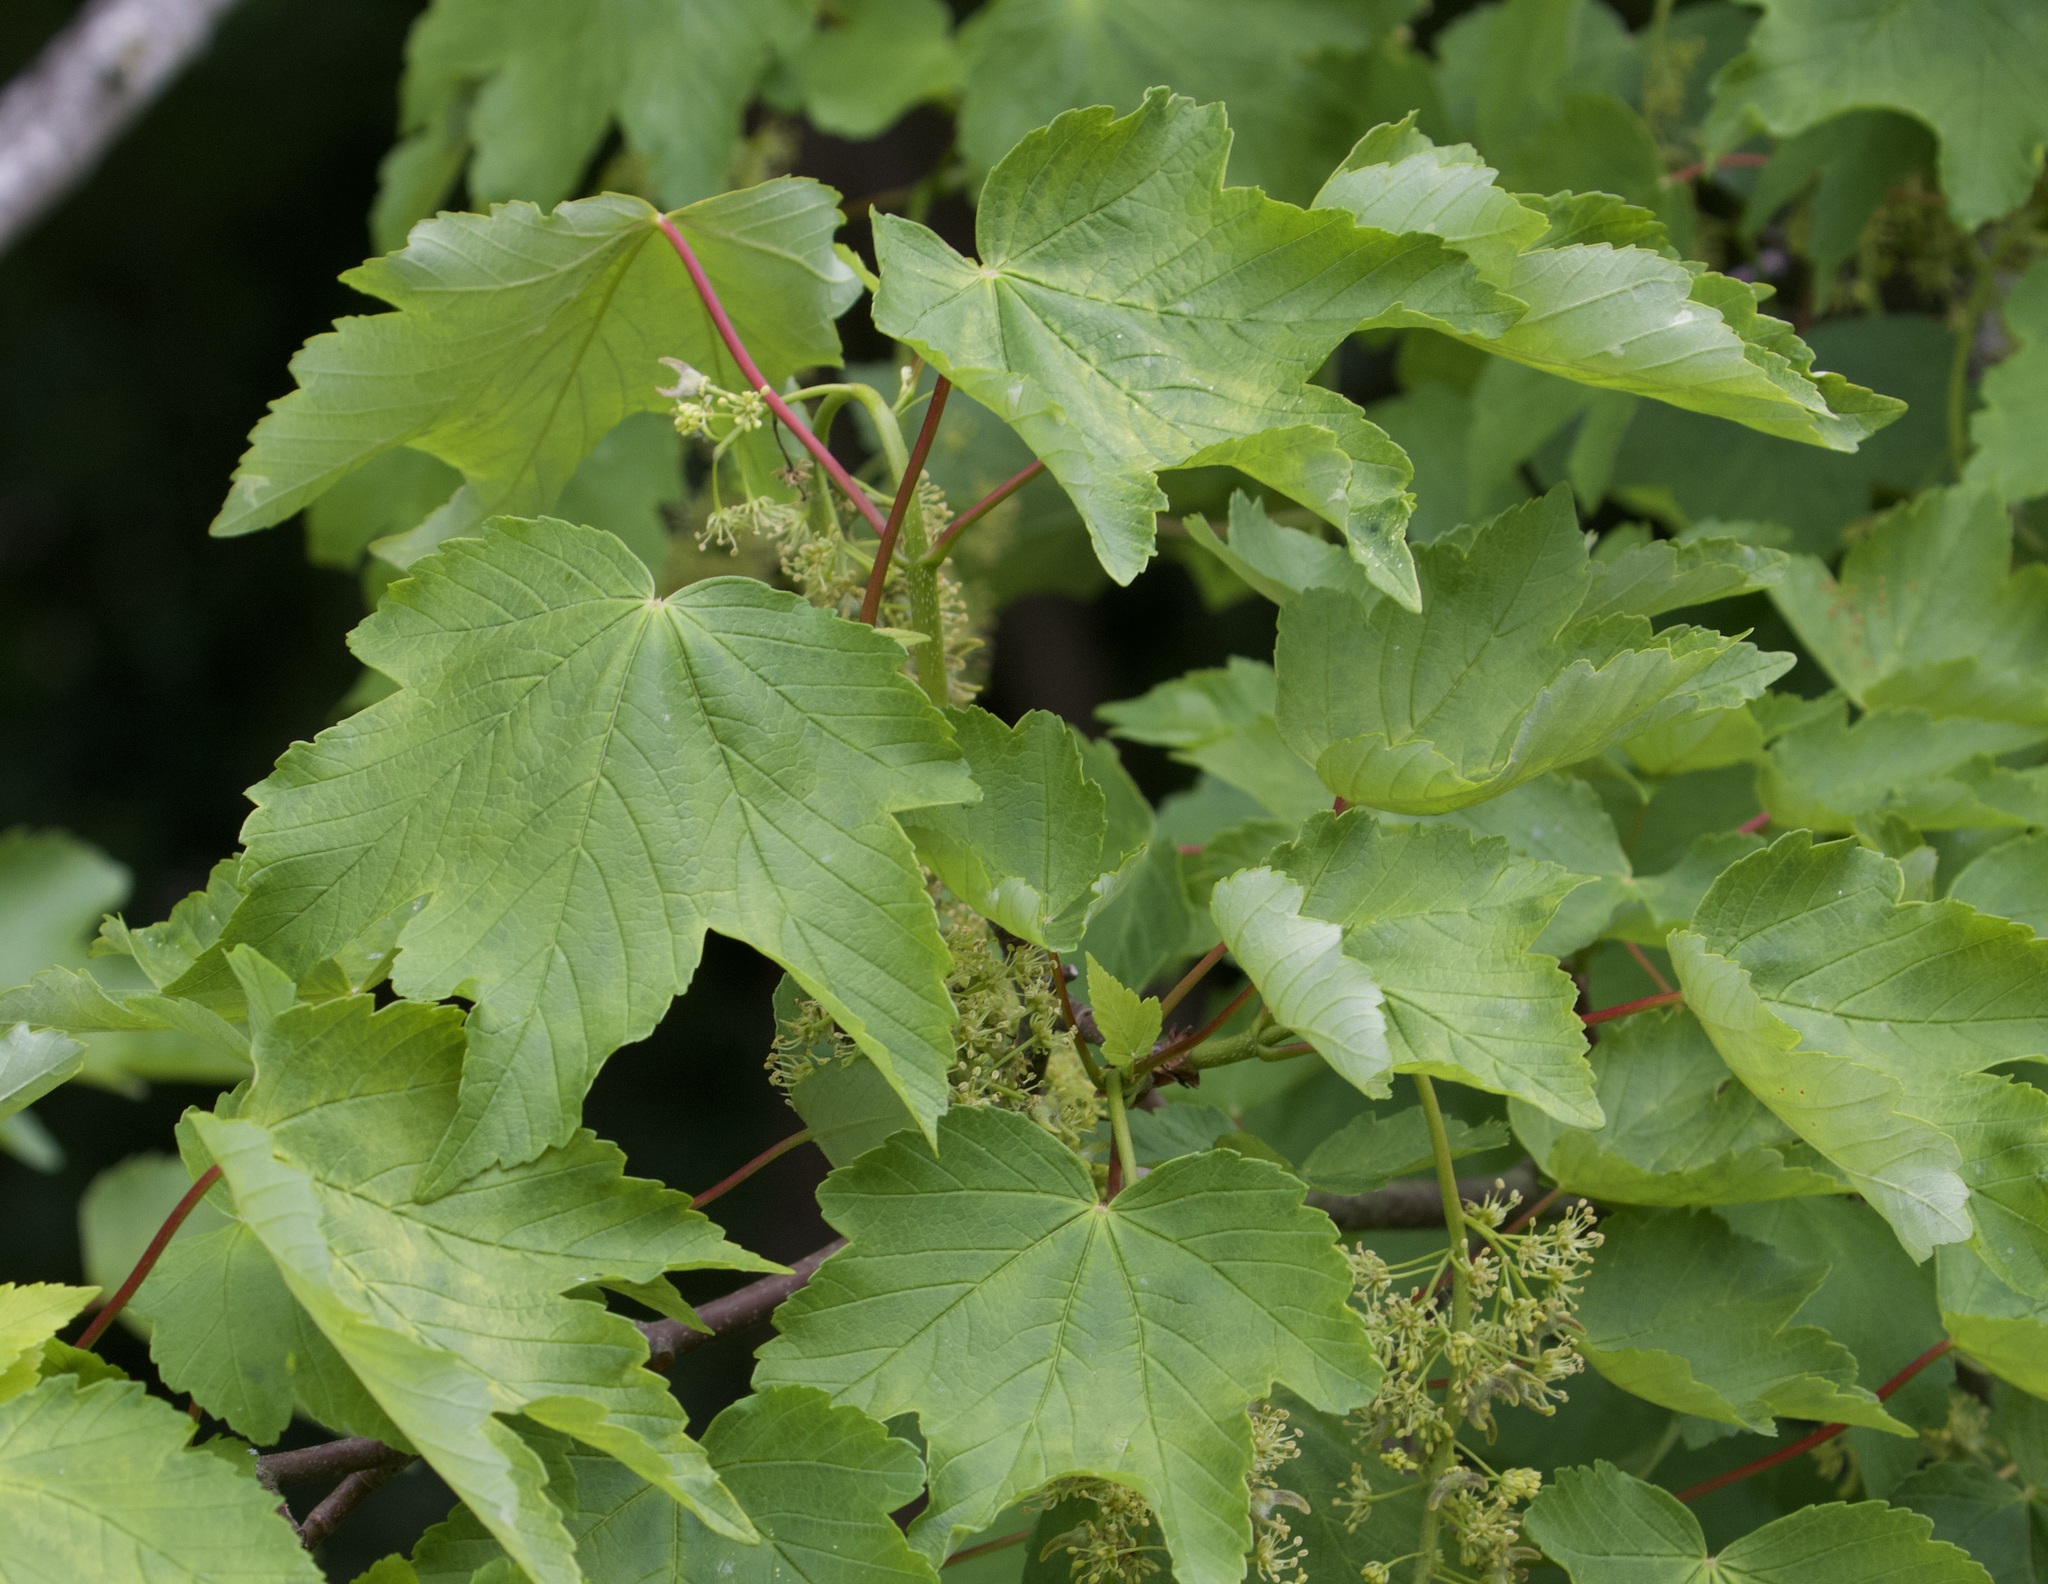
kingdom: Plantae
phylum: Tracheophyta
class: Magnoliopsida
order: Sapindales
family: Sapindaceae
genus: Acer
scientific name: Acer pseudoplatanus
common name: Sycamore
